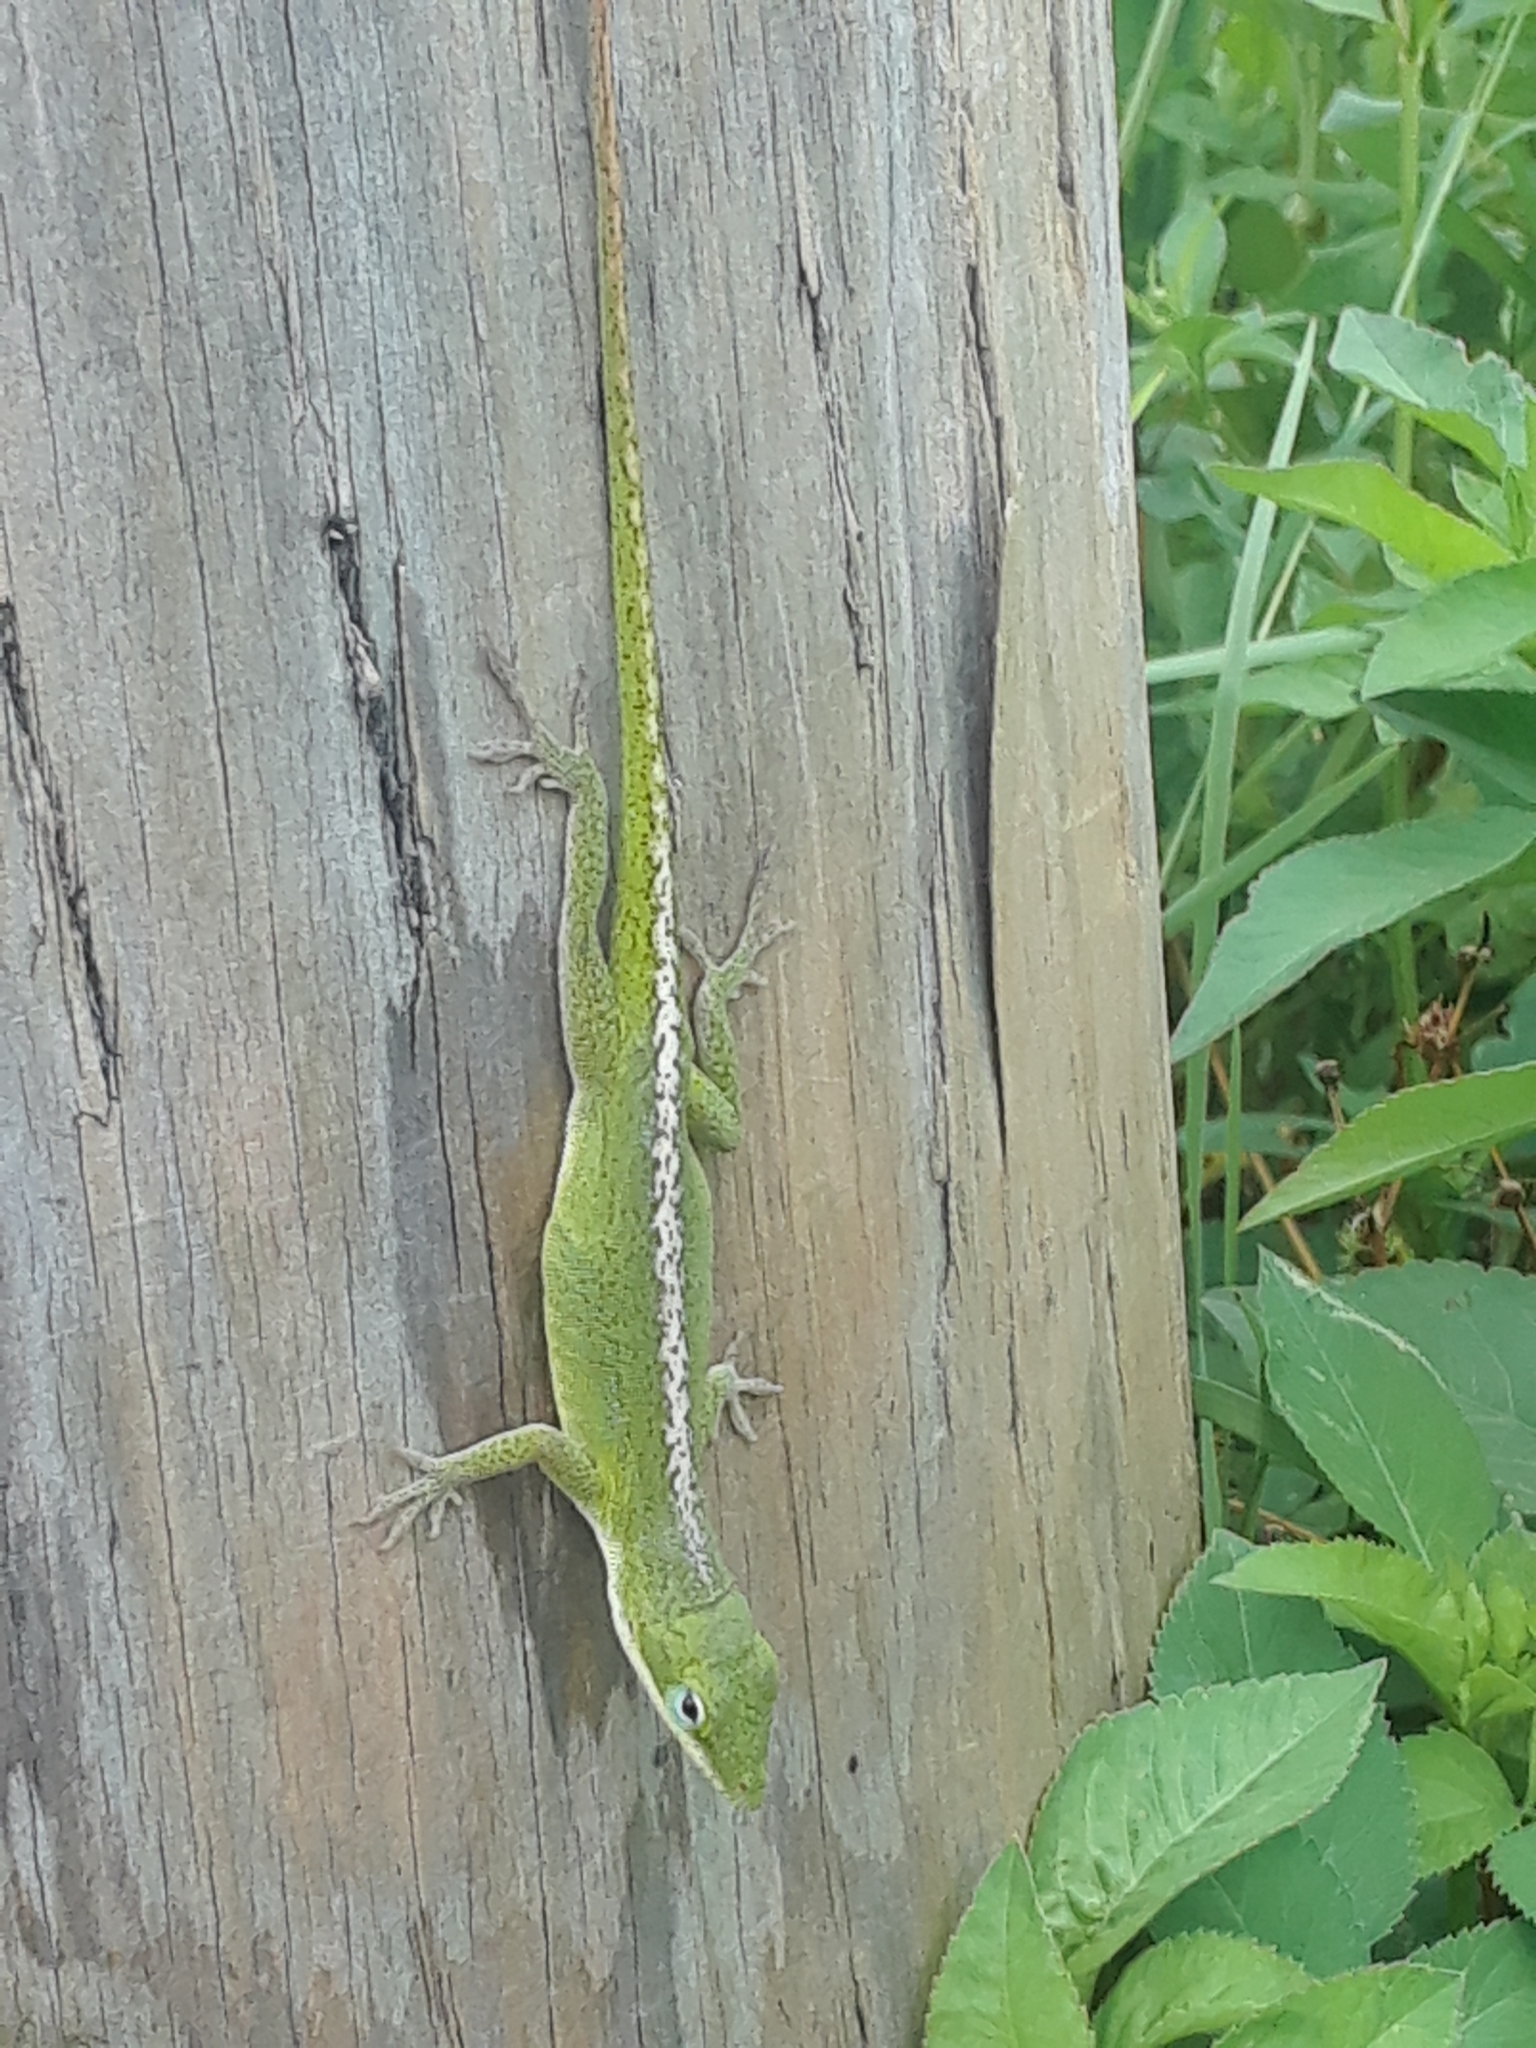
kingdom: Animalia
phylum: Chordata
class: Squamata
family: Dactyloidae
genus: Anolis
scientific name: Anolis carolinensis
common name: Green anole
